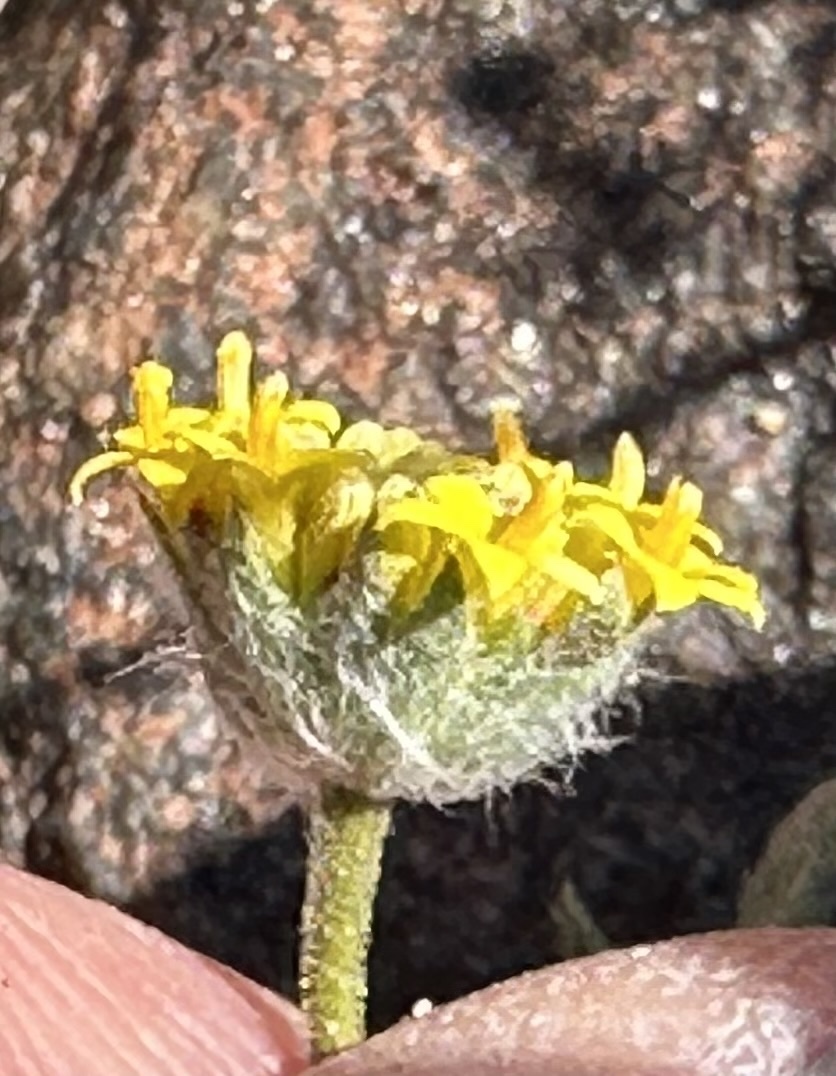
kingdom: Plantae
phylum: Tracheophyta
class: Magnoliopsida
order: Asterales
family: Asteraceae
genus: Trichoptilium
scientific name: Trichoptilium incisum
